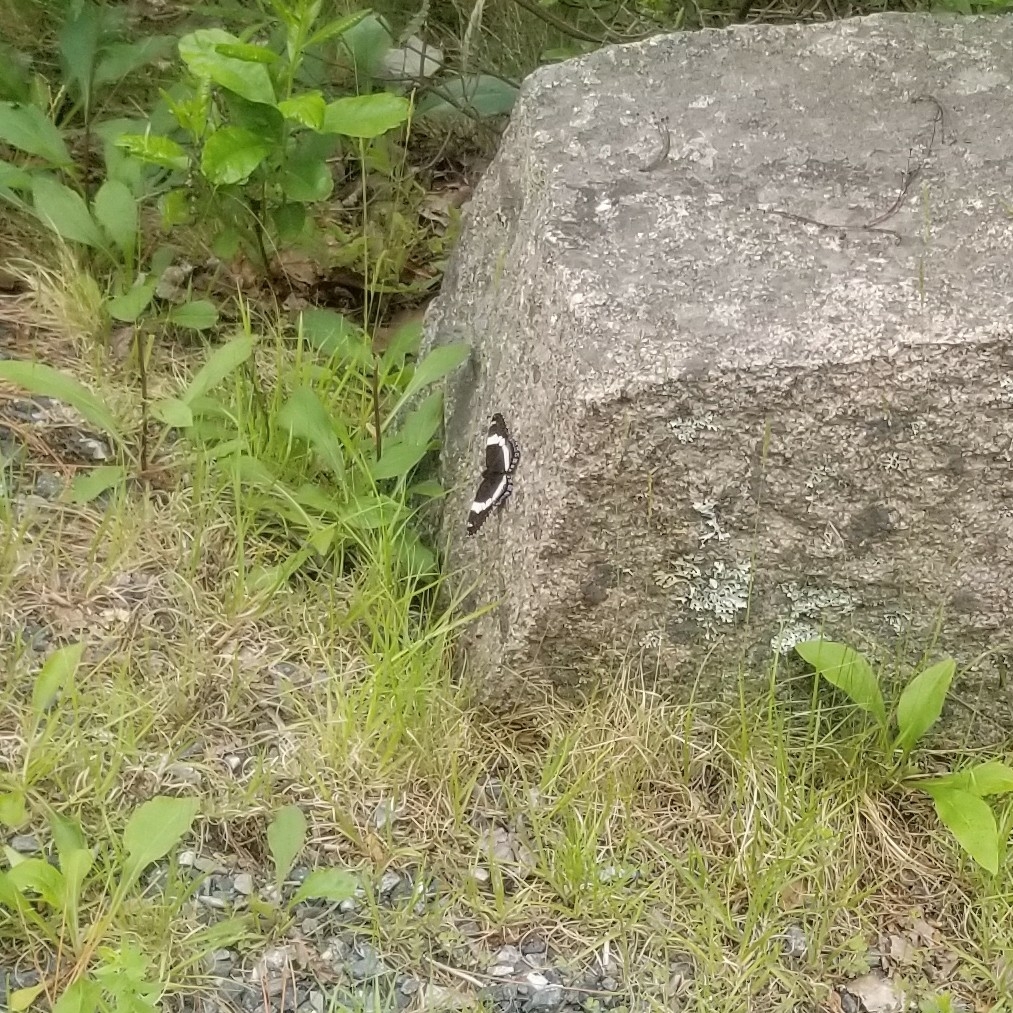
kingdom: Animalia
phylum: Arthropoda
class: Insecta
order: Lepidoptera
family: Nymphalidae
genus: Limenitis
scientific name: Limenitis arthemis
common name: Red-spotted admiral
